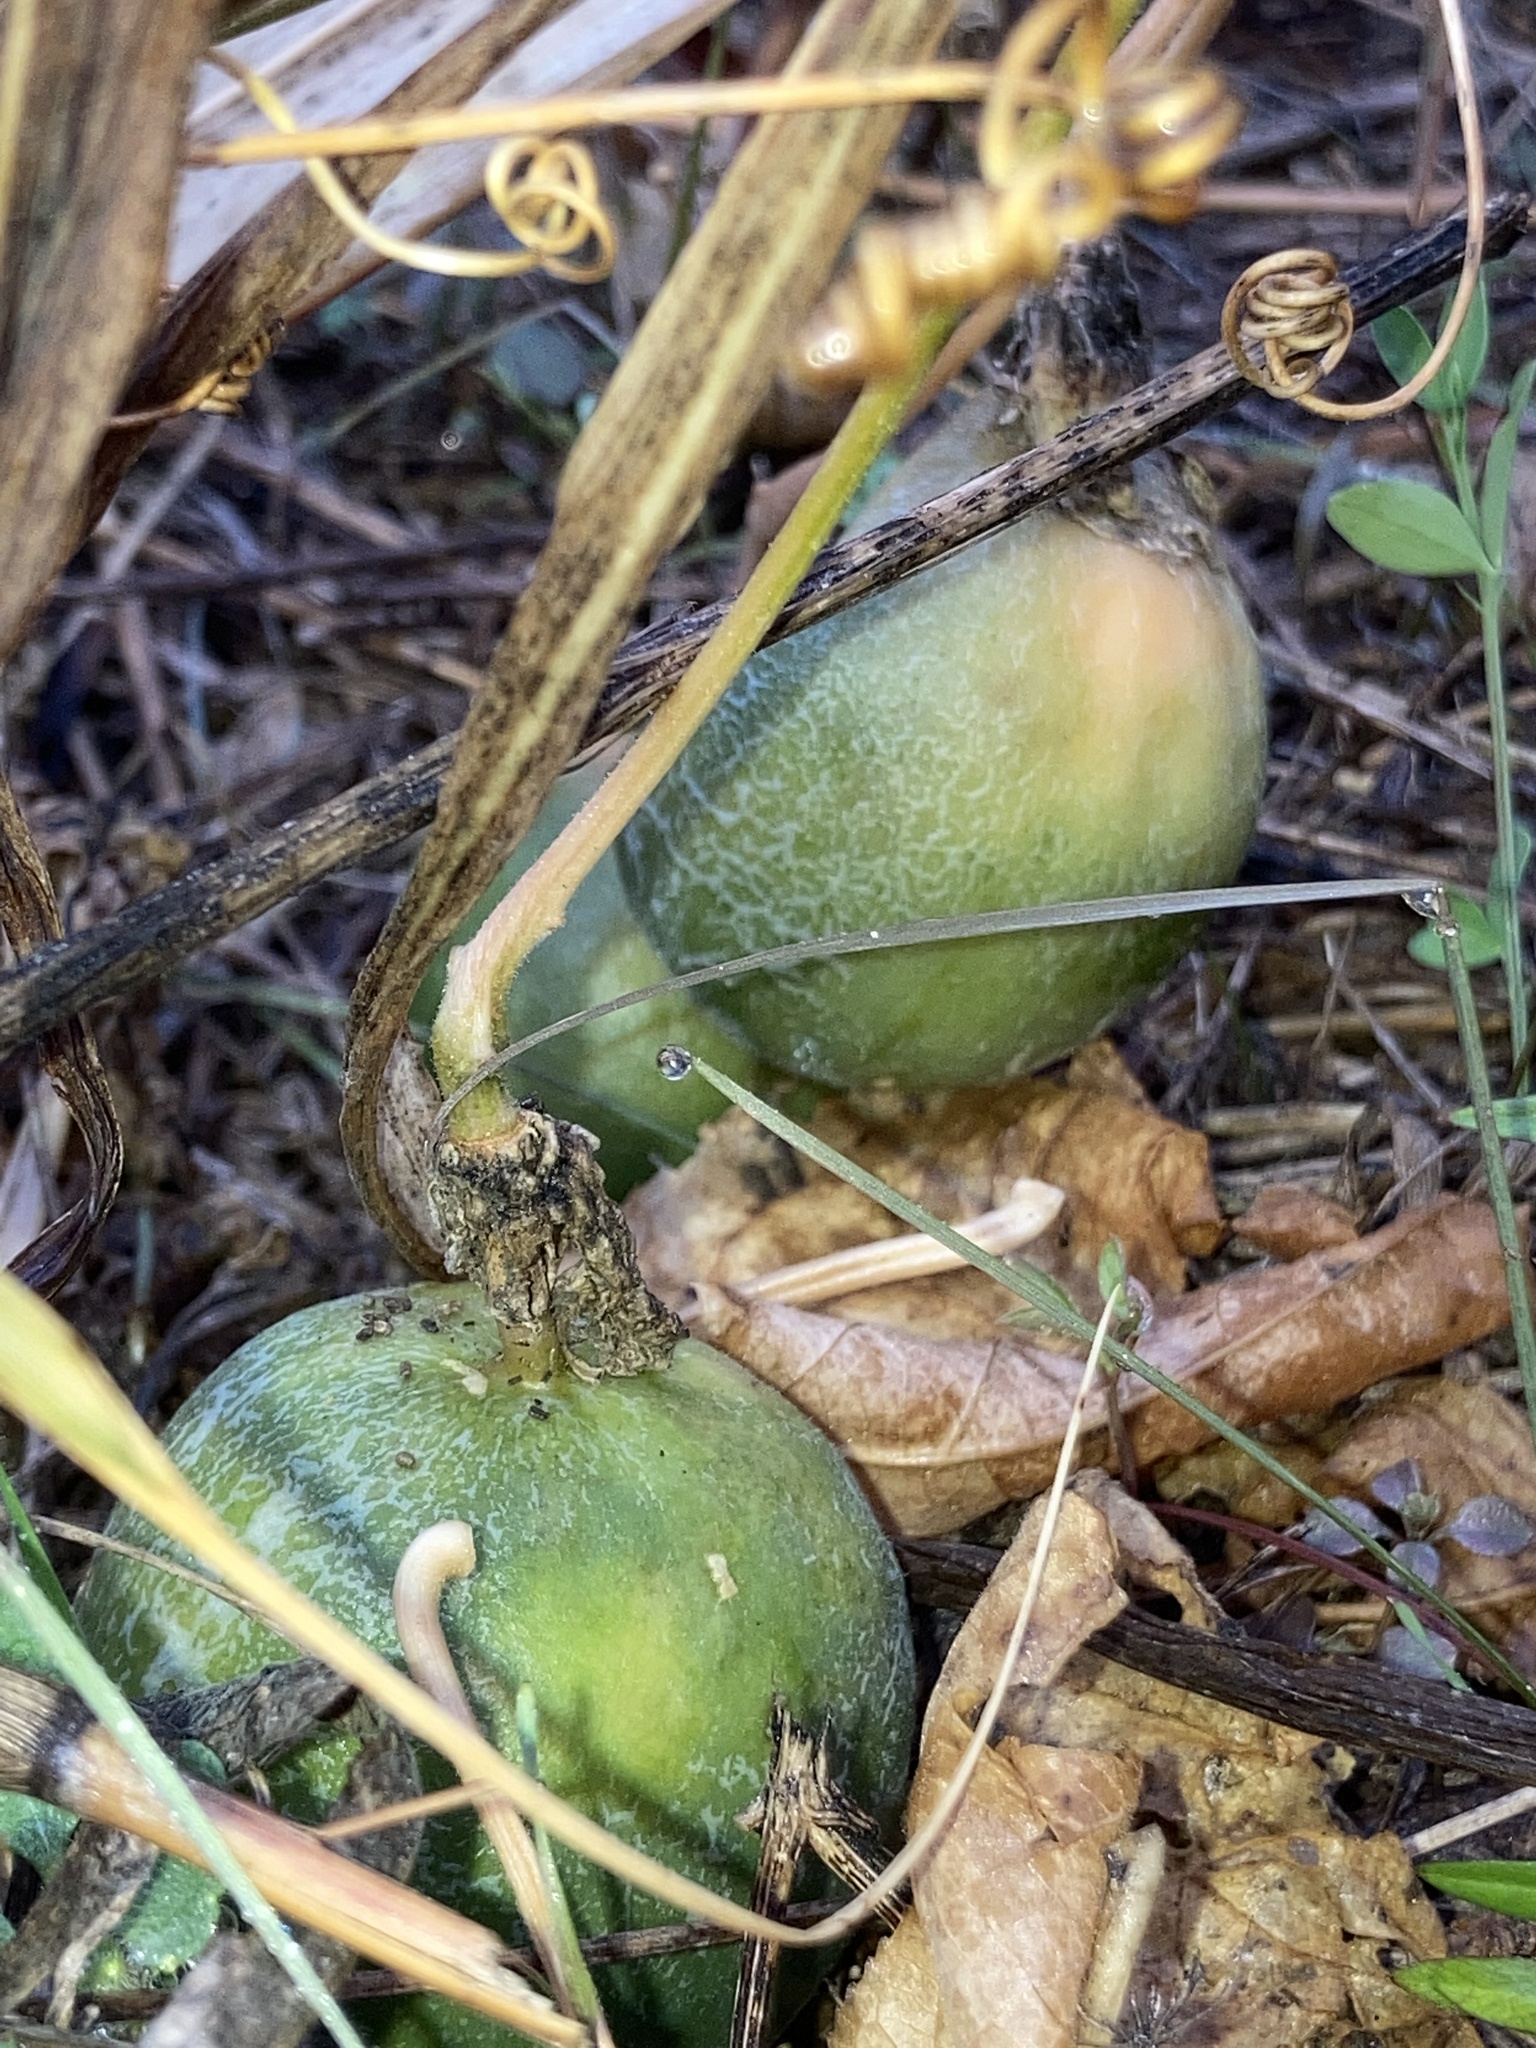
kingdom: Plantae
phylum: Tracheophyta
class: Magnoliopsida
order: Cucurbitales
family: Cucurbitaceae
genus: Cucumis
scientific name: Cucumis melo
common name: Melon
